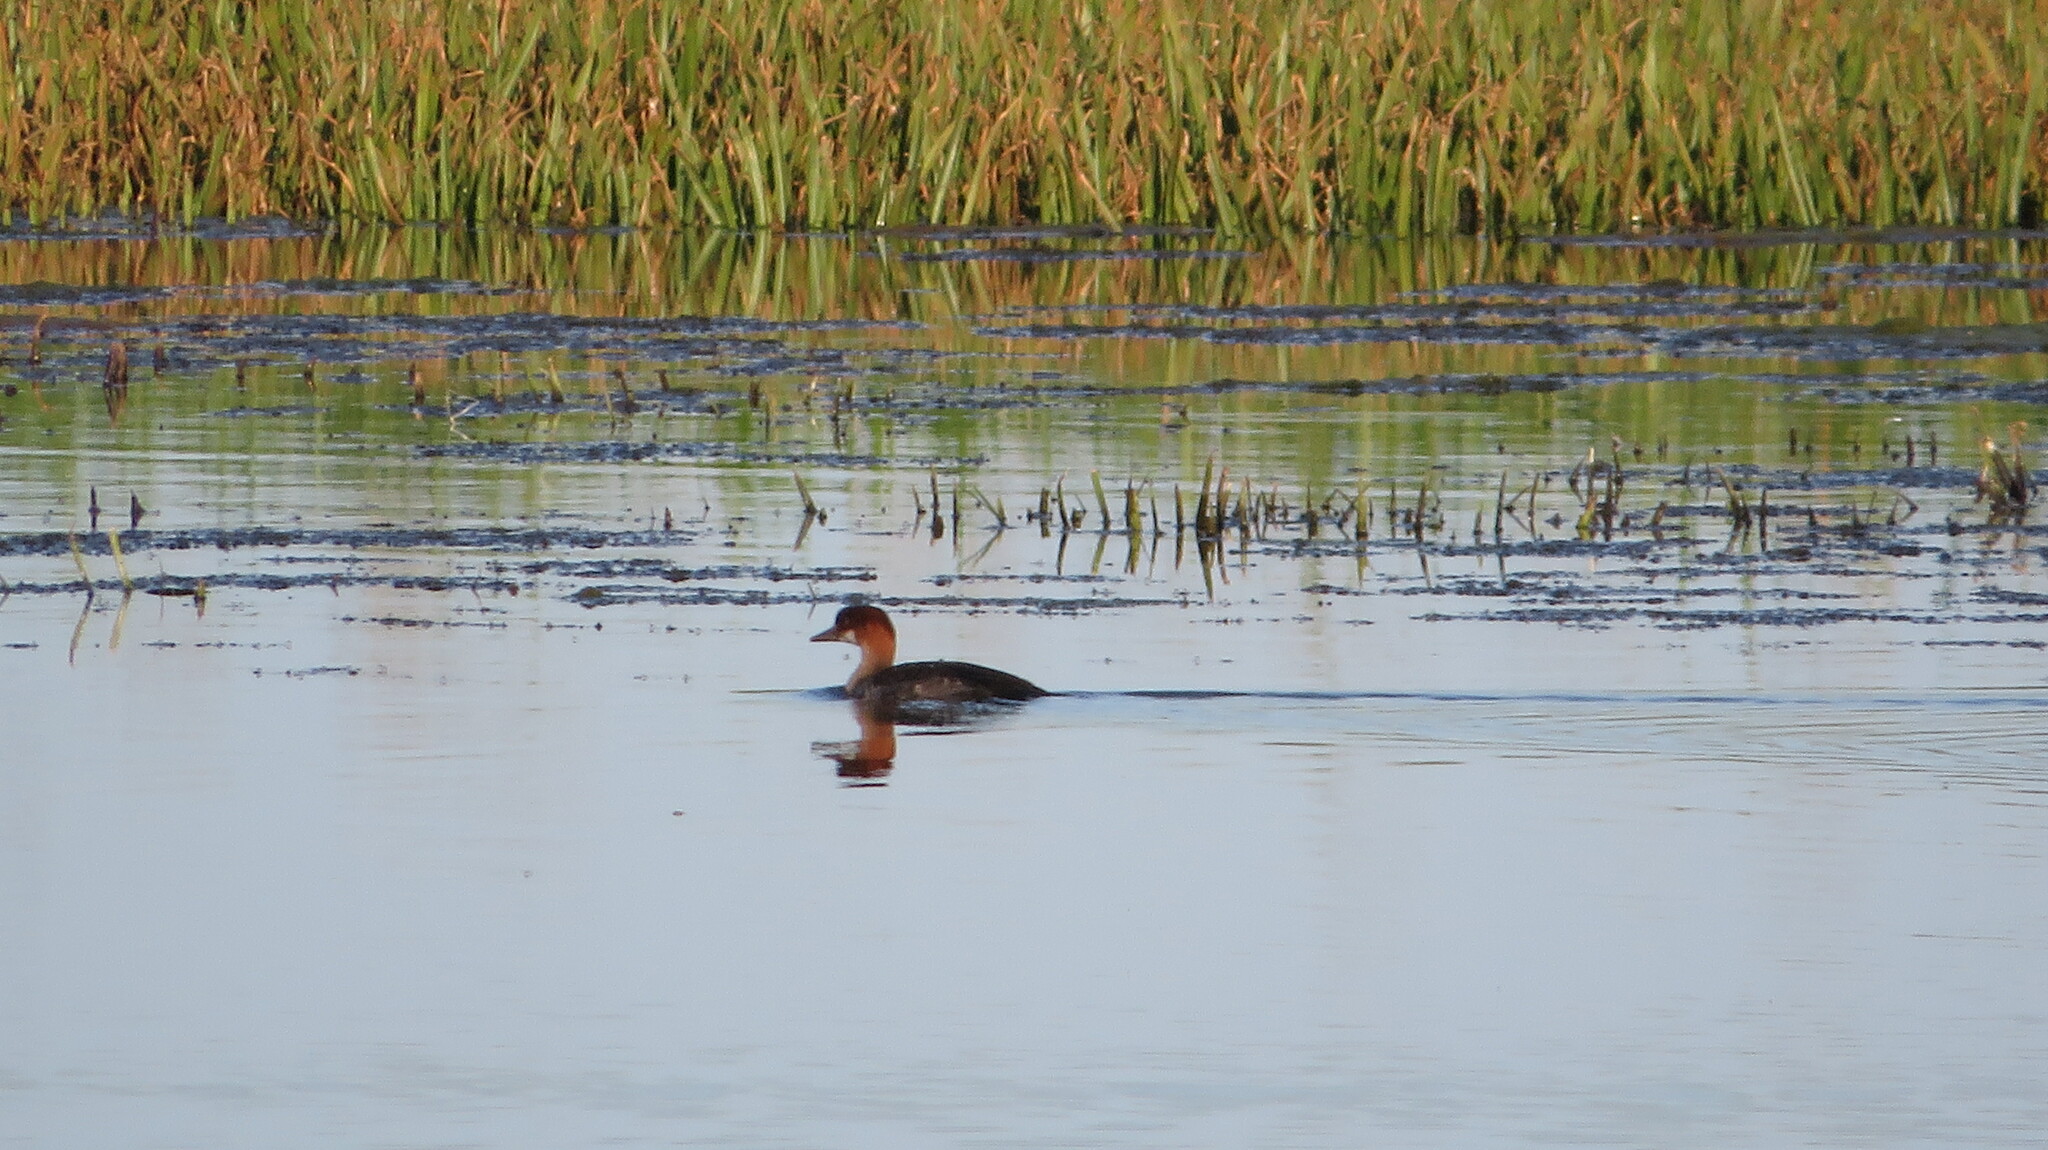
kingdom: Animalia
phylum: Chordata
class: Aves
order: Anseriformes
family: Anatidae
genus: Mergellus
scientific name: Mergellus albellus
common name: Smew
